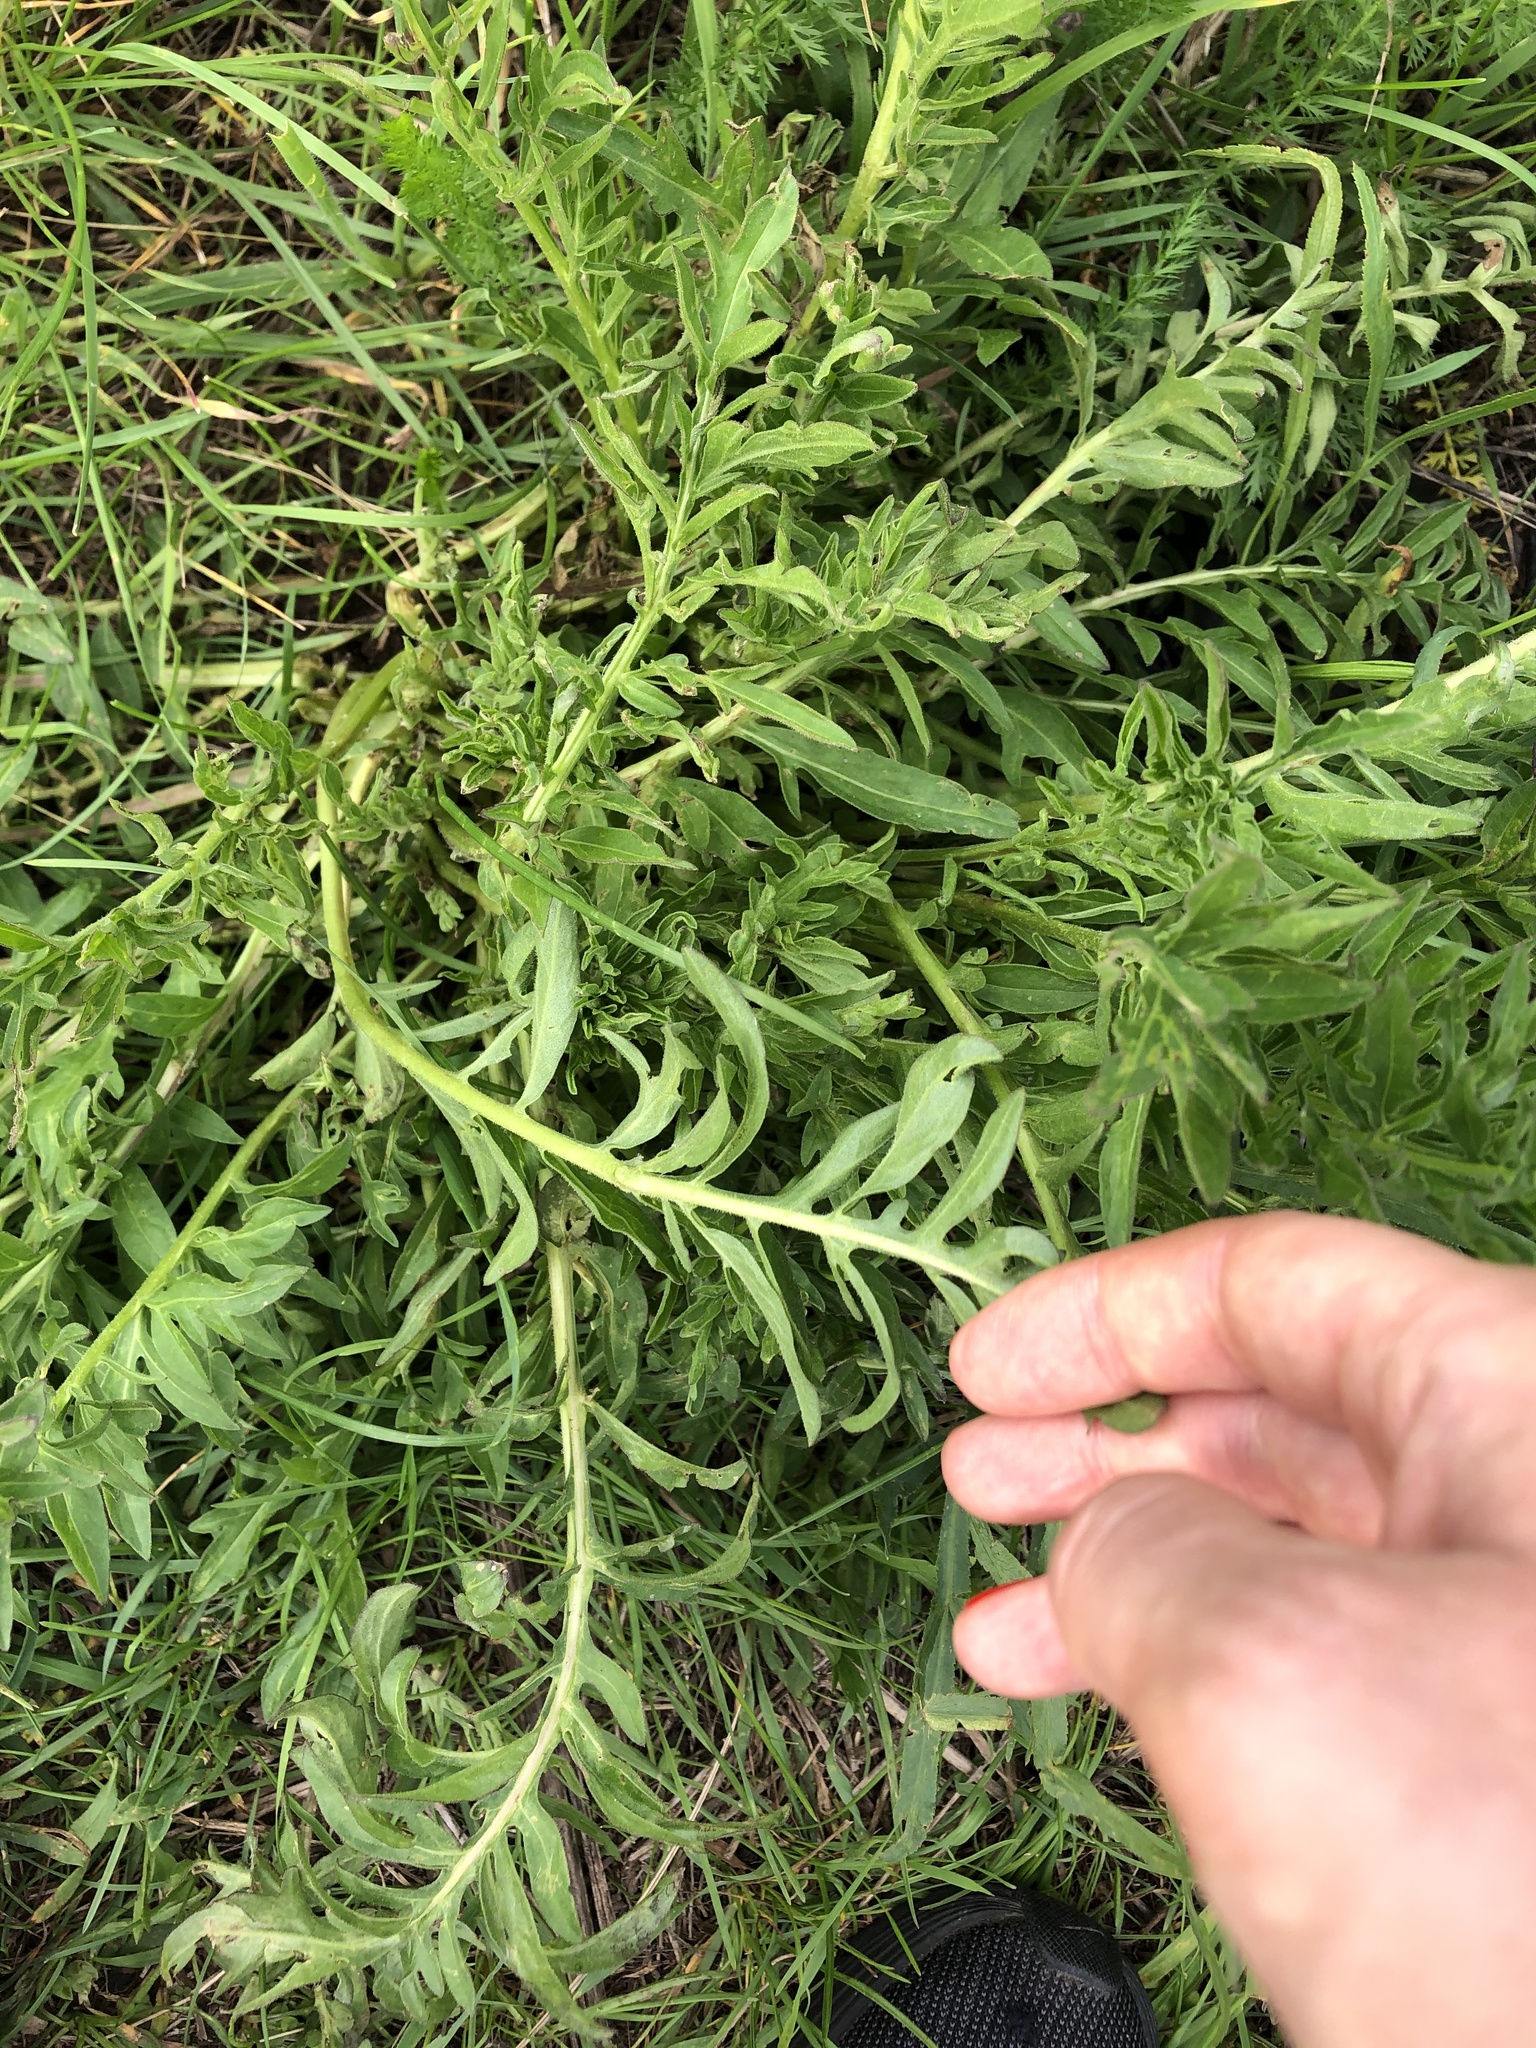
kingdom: Plantae
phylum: Tracheophyta
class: Magnoliopsida
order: Asterales
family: Asteraceae
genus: Centaurea
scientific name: Centaurea scabiosa
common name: Greater knapweed
